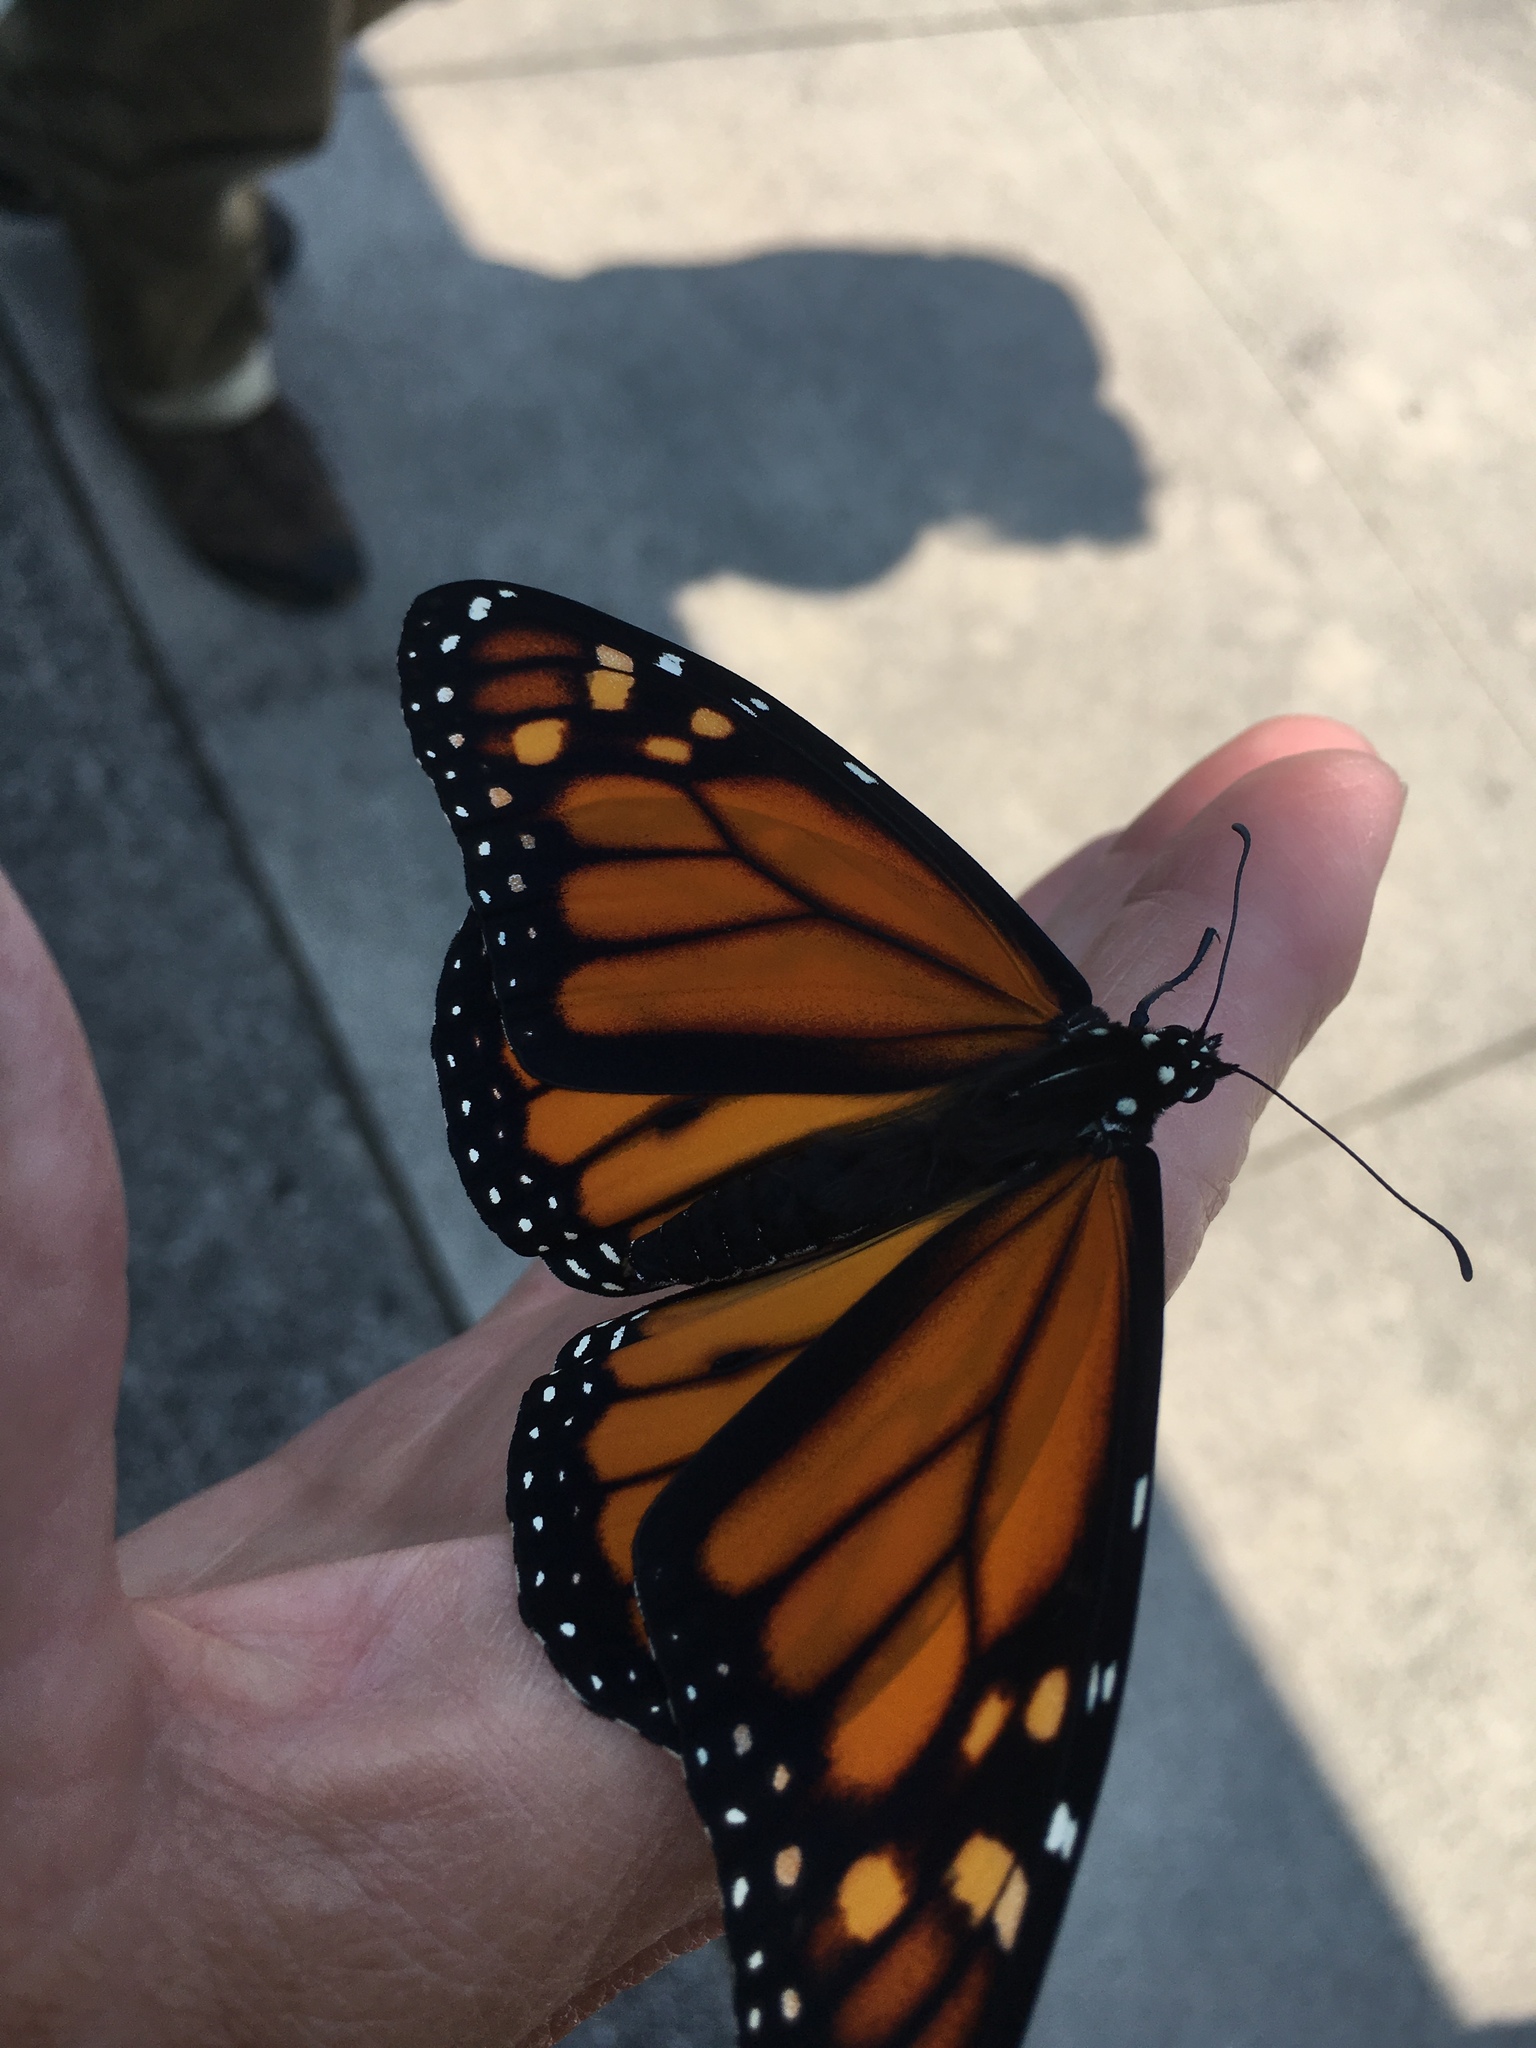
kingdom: Animalia
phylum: Arthropoda
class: Insecta
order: Lepidoptera
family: Nymphalidae
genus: Danaus
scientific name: Danaus plexippus
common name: Monarch
